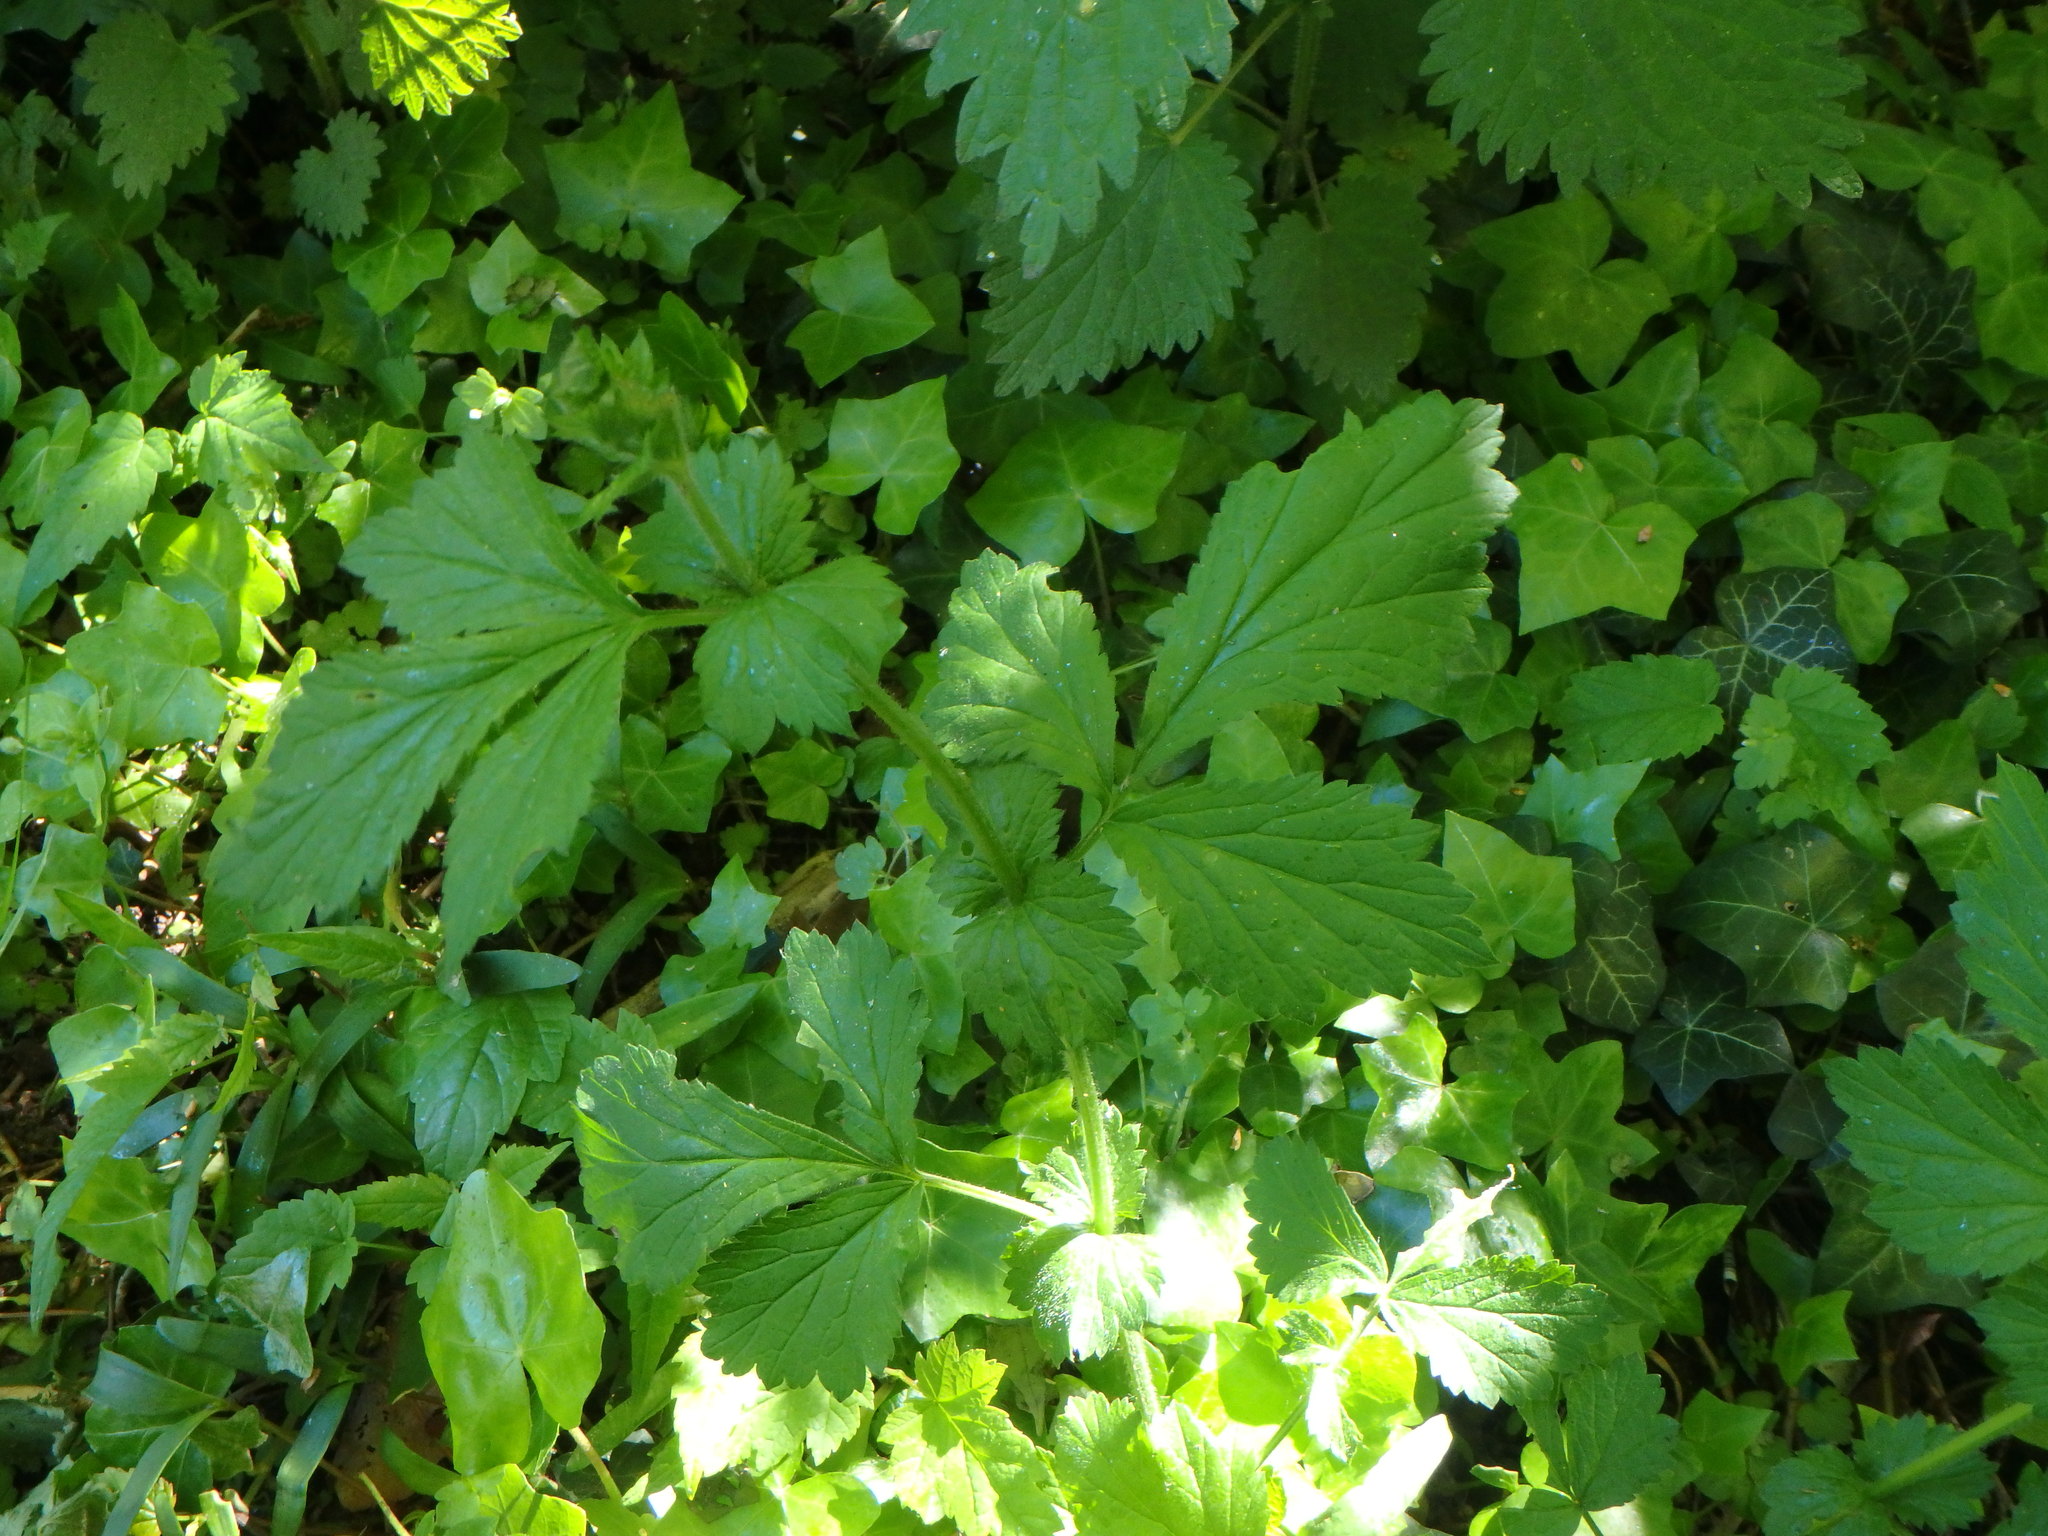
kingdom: Plantae
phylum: Tracheophyta
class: Magnoliopsida
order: Rosales
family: Rosaceae
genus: Geum
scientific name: Geum urbanum
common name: Wood avens
